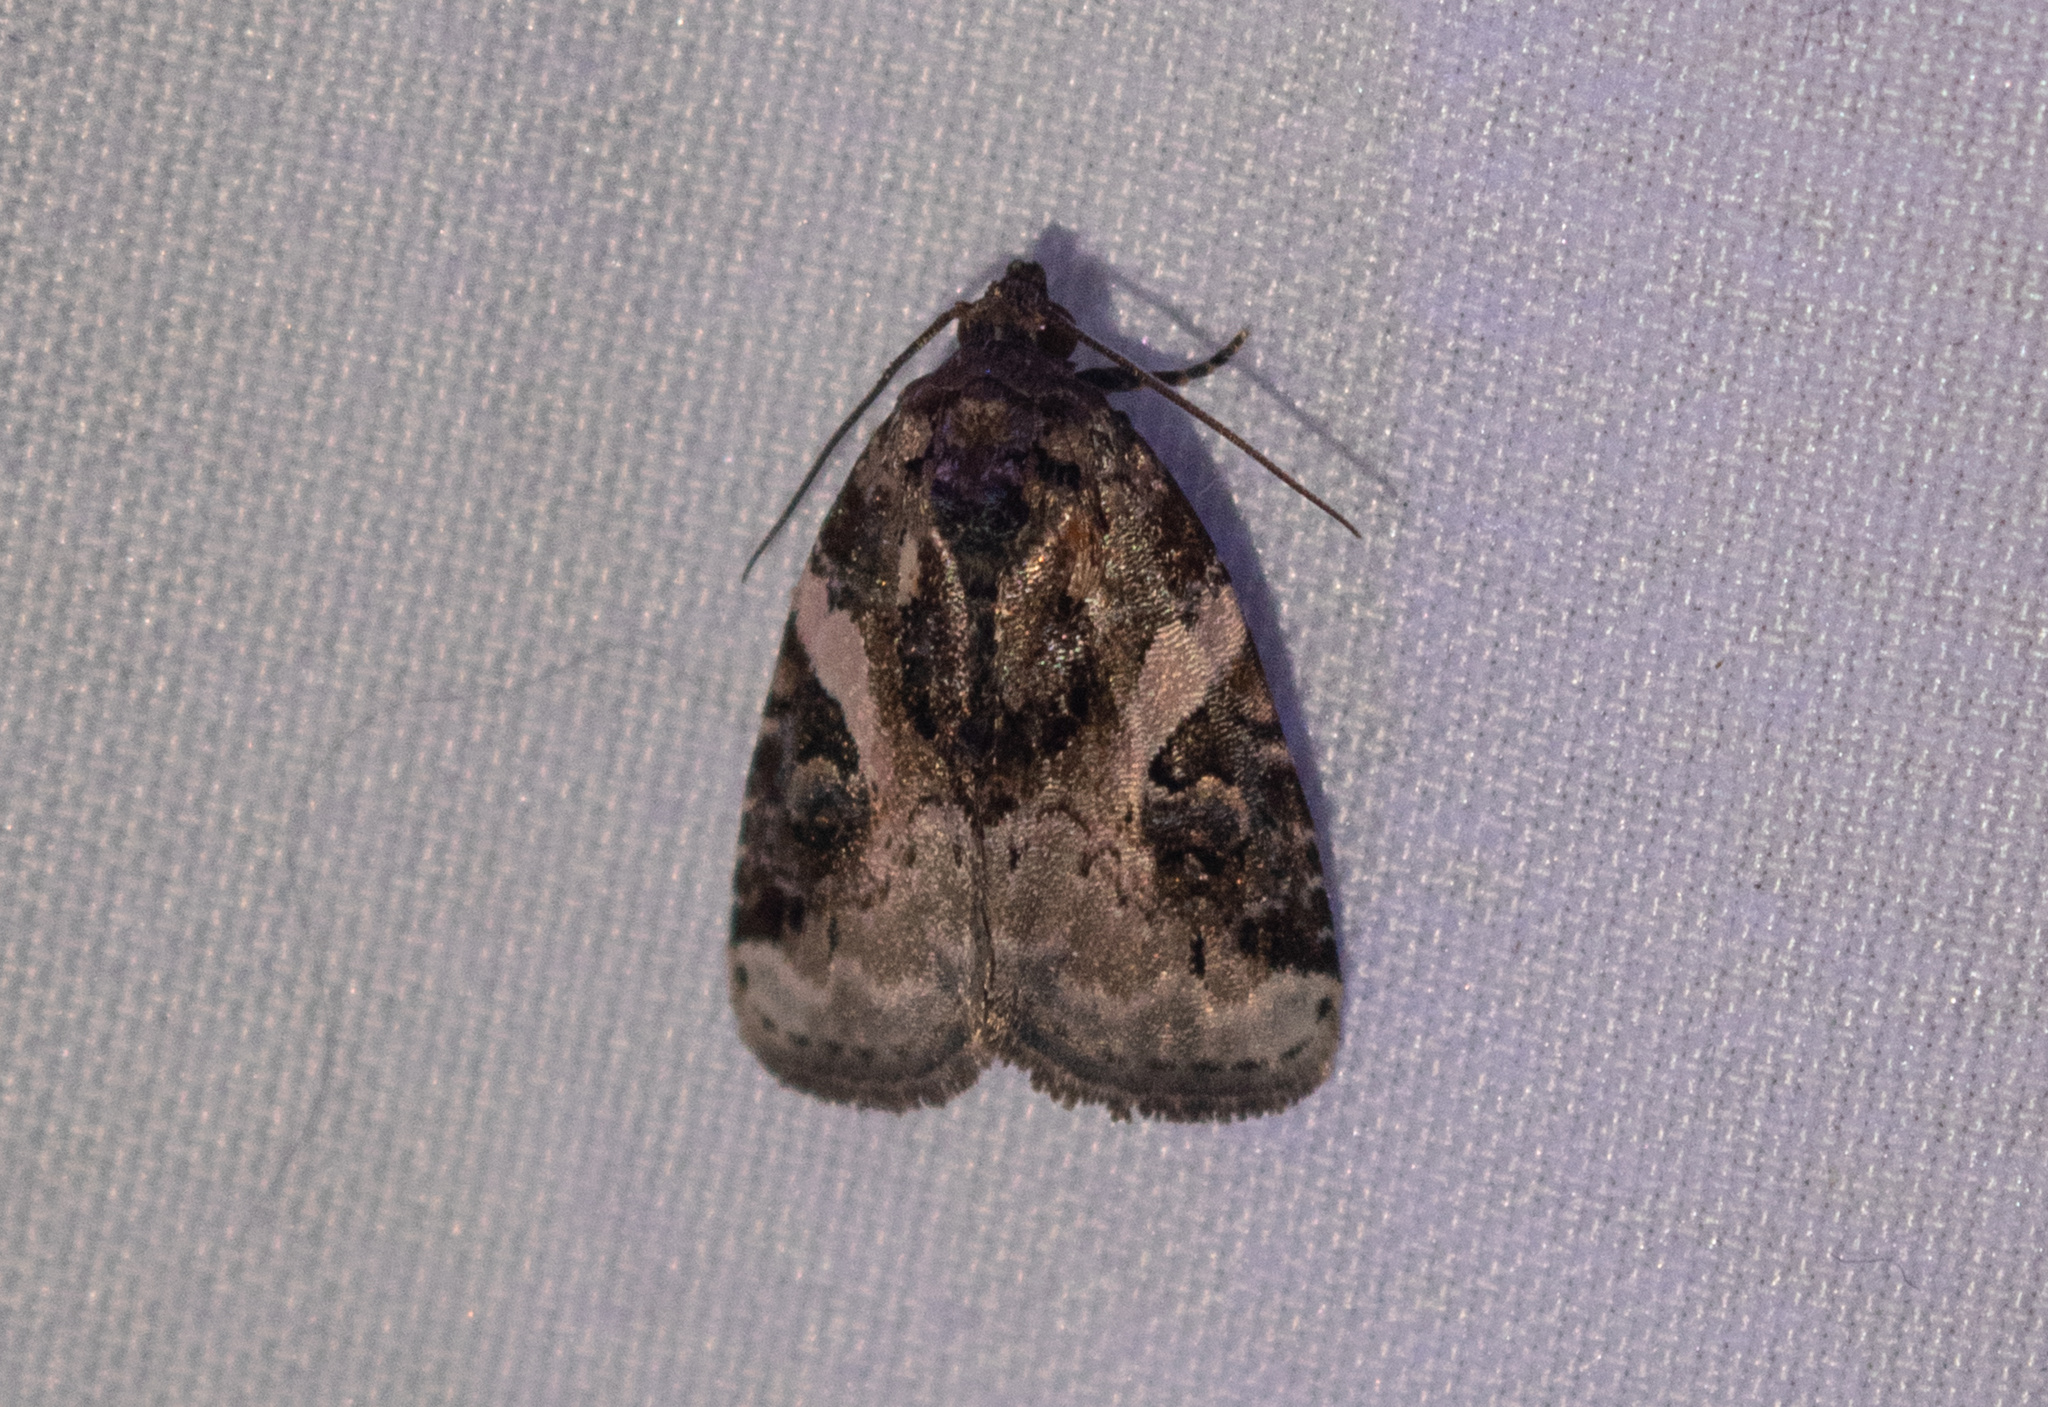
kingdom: Animalia
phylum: Arthropoda
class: Insecta
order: Lepidoptera
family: Noctuidae
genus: Pseudeustrotia
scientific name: Pseudeustrotia carneola
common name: Pink-barred lithacodia moth
